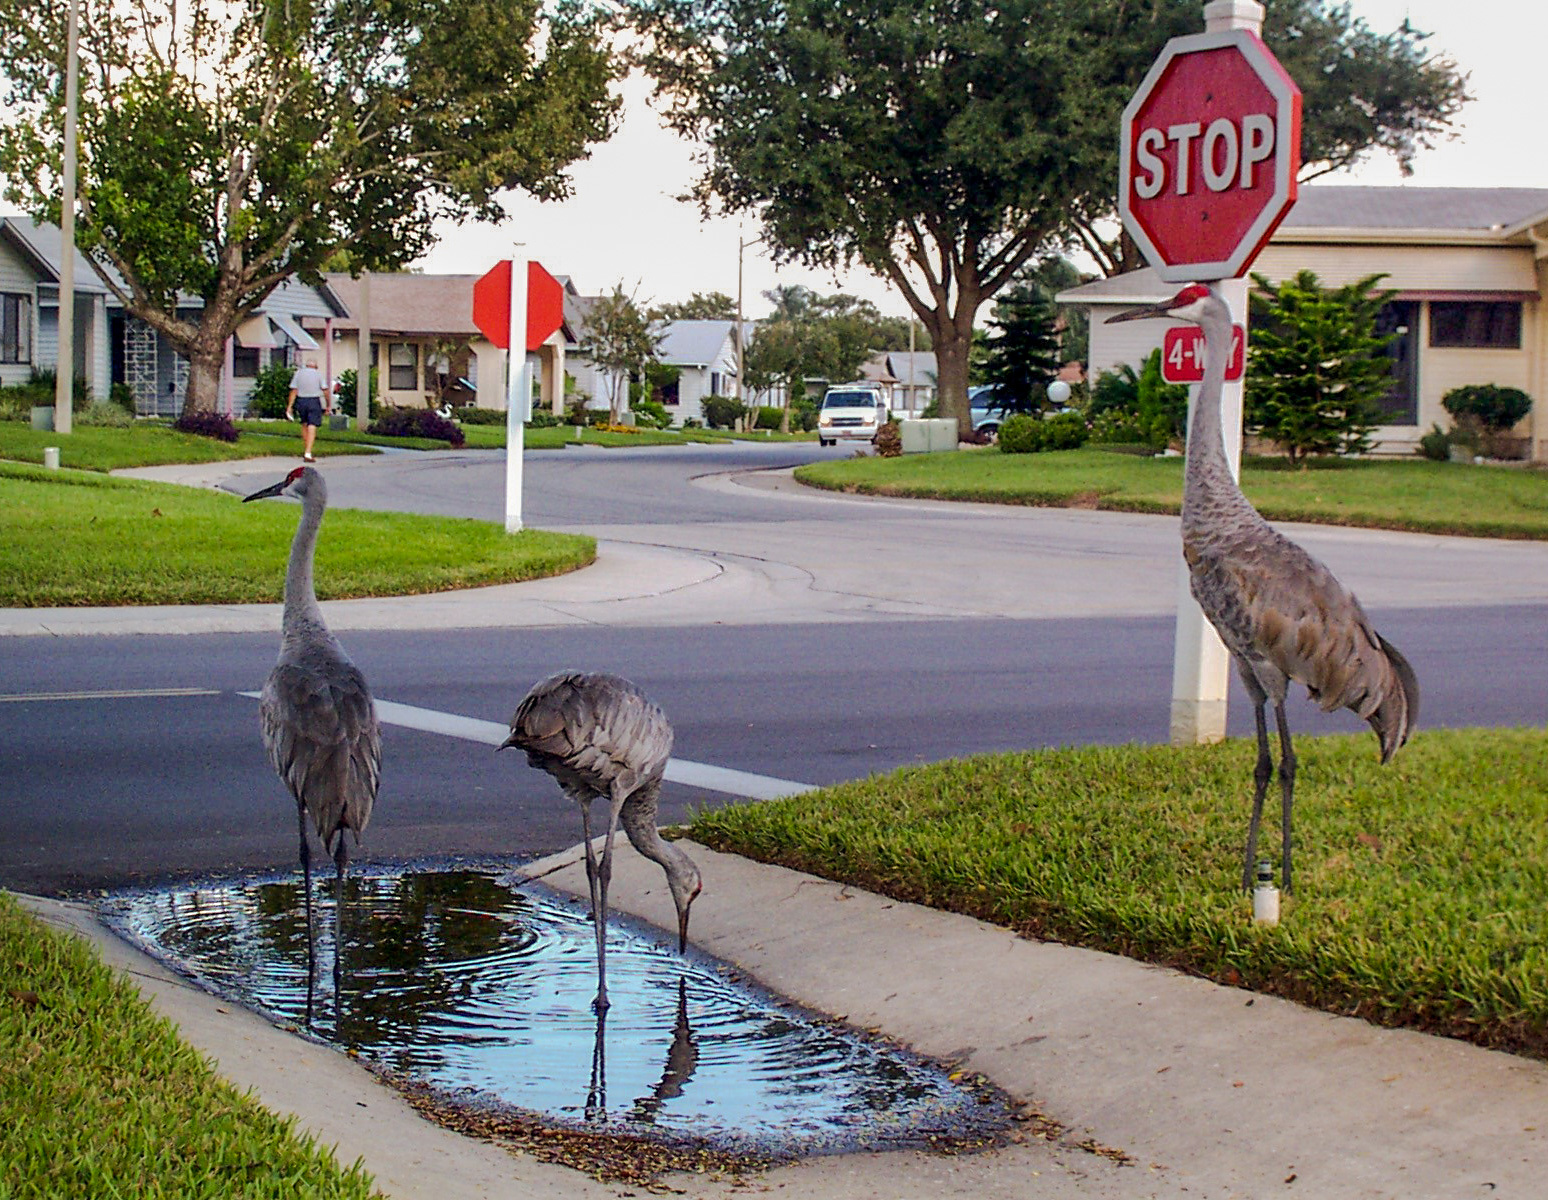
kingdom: Animalia
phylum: Chordata
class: Aves
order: Gruiformes
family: Gruidae
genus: Grus
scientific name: Grus canadensis
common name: Sandhill crane
